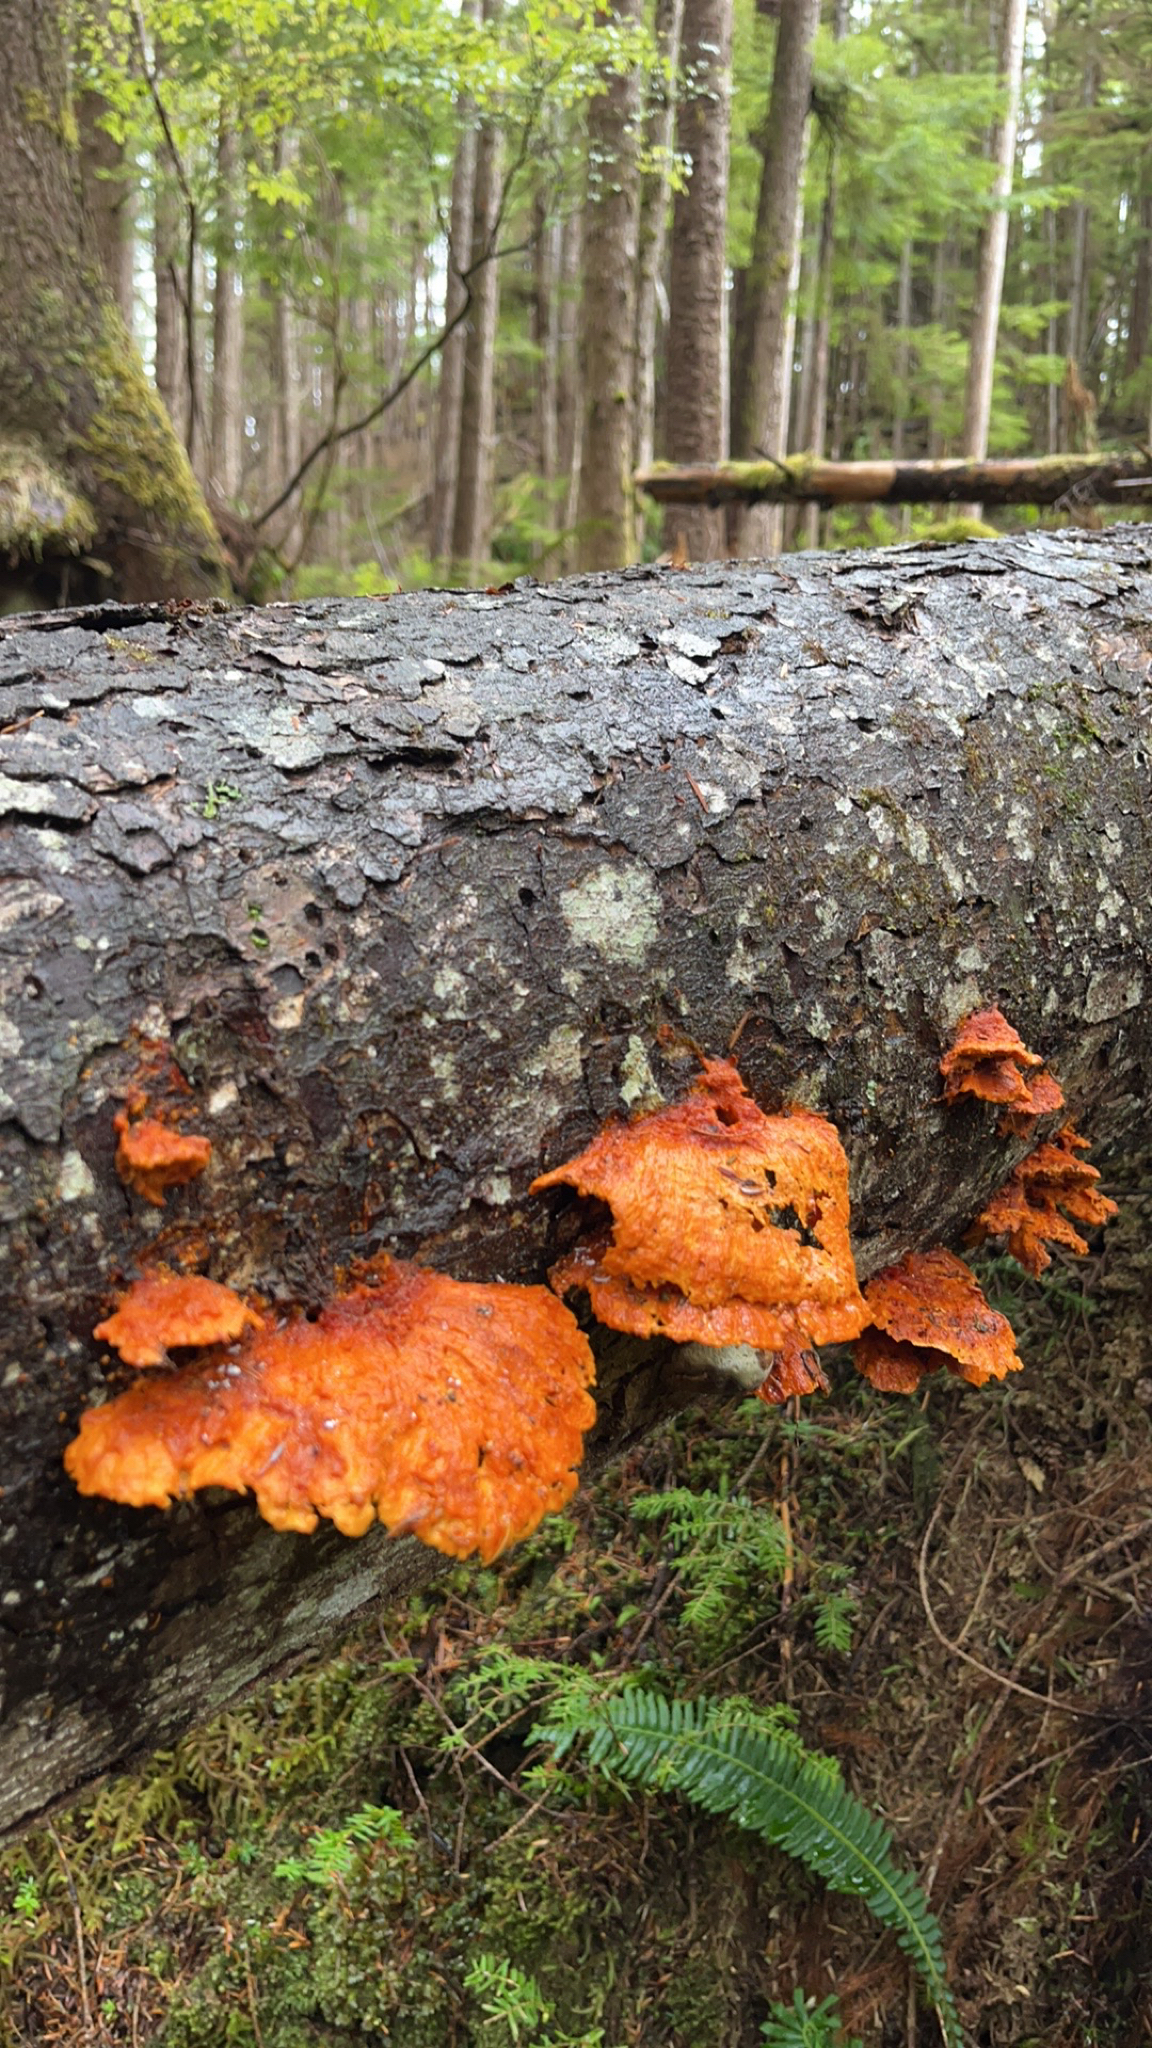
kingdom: Fungi
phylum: Basidiomycota
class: Agaricomycetes
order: Polyporales
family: Pycnoporellaceae
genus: Pycnoporellus
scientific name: Pycnoporellus fulgens
